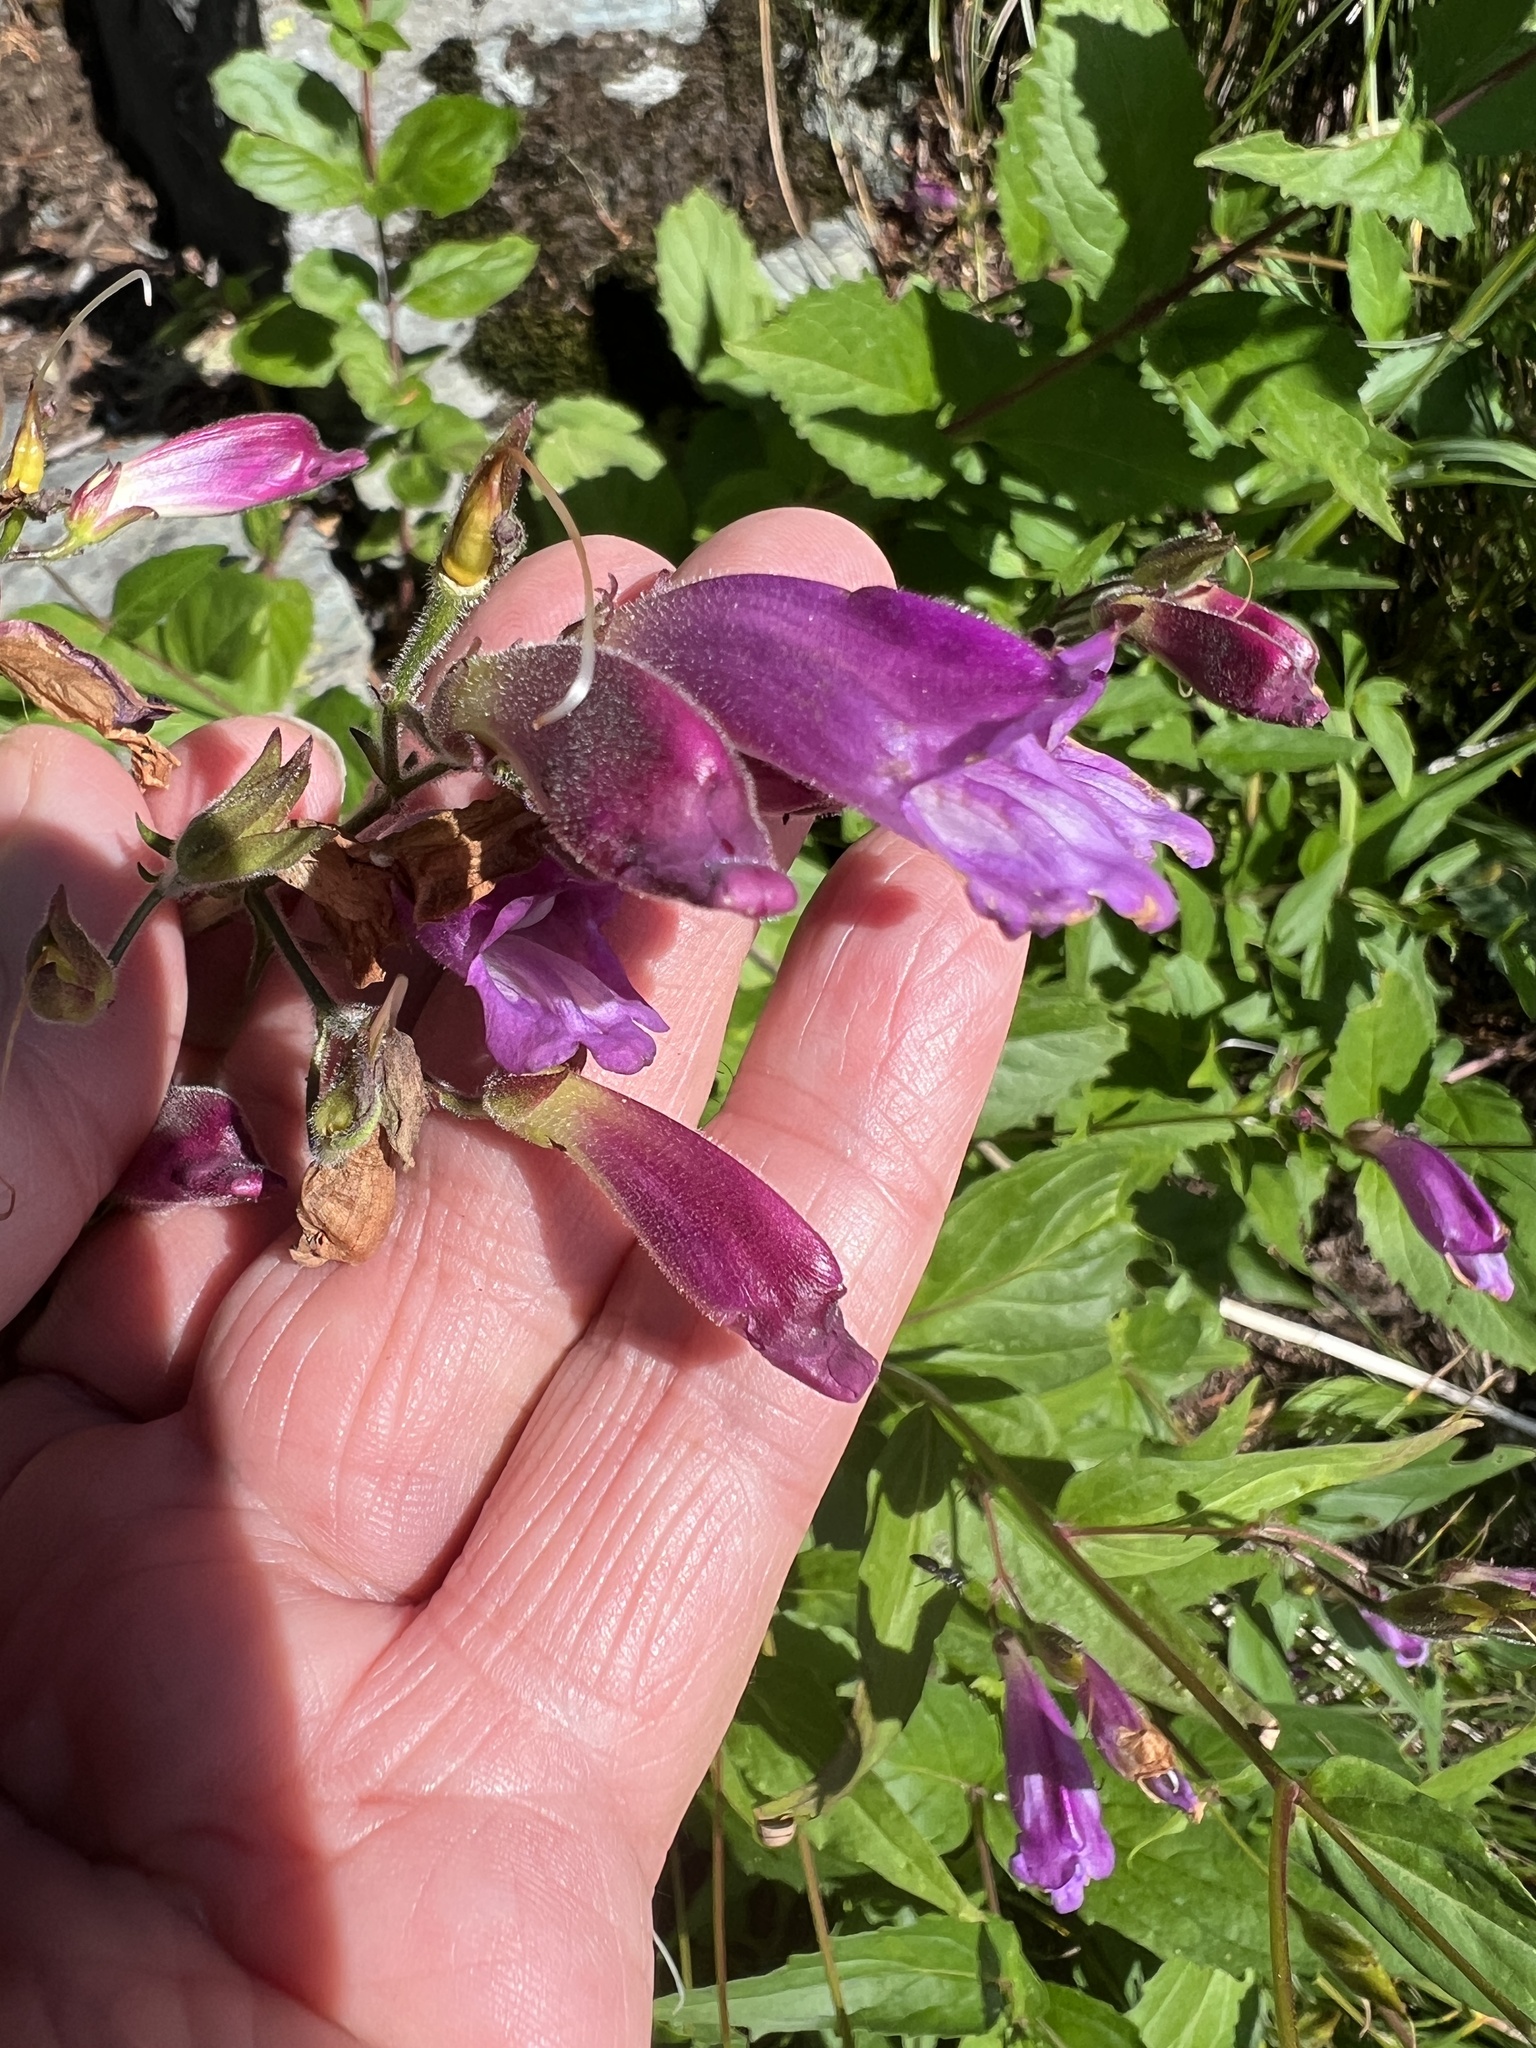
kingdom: Plantae
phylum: Tracheophyta
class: Magnoliopsida
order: Lamiales
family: Plantaginaceae
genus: Nothochelone
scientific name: Nothochelone nemorosa
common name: Woodland beardtongue
